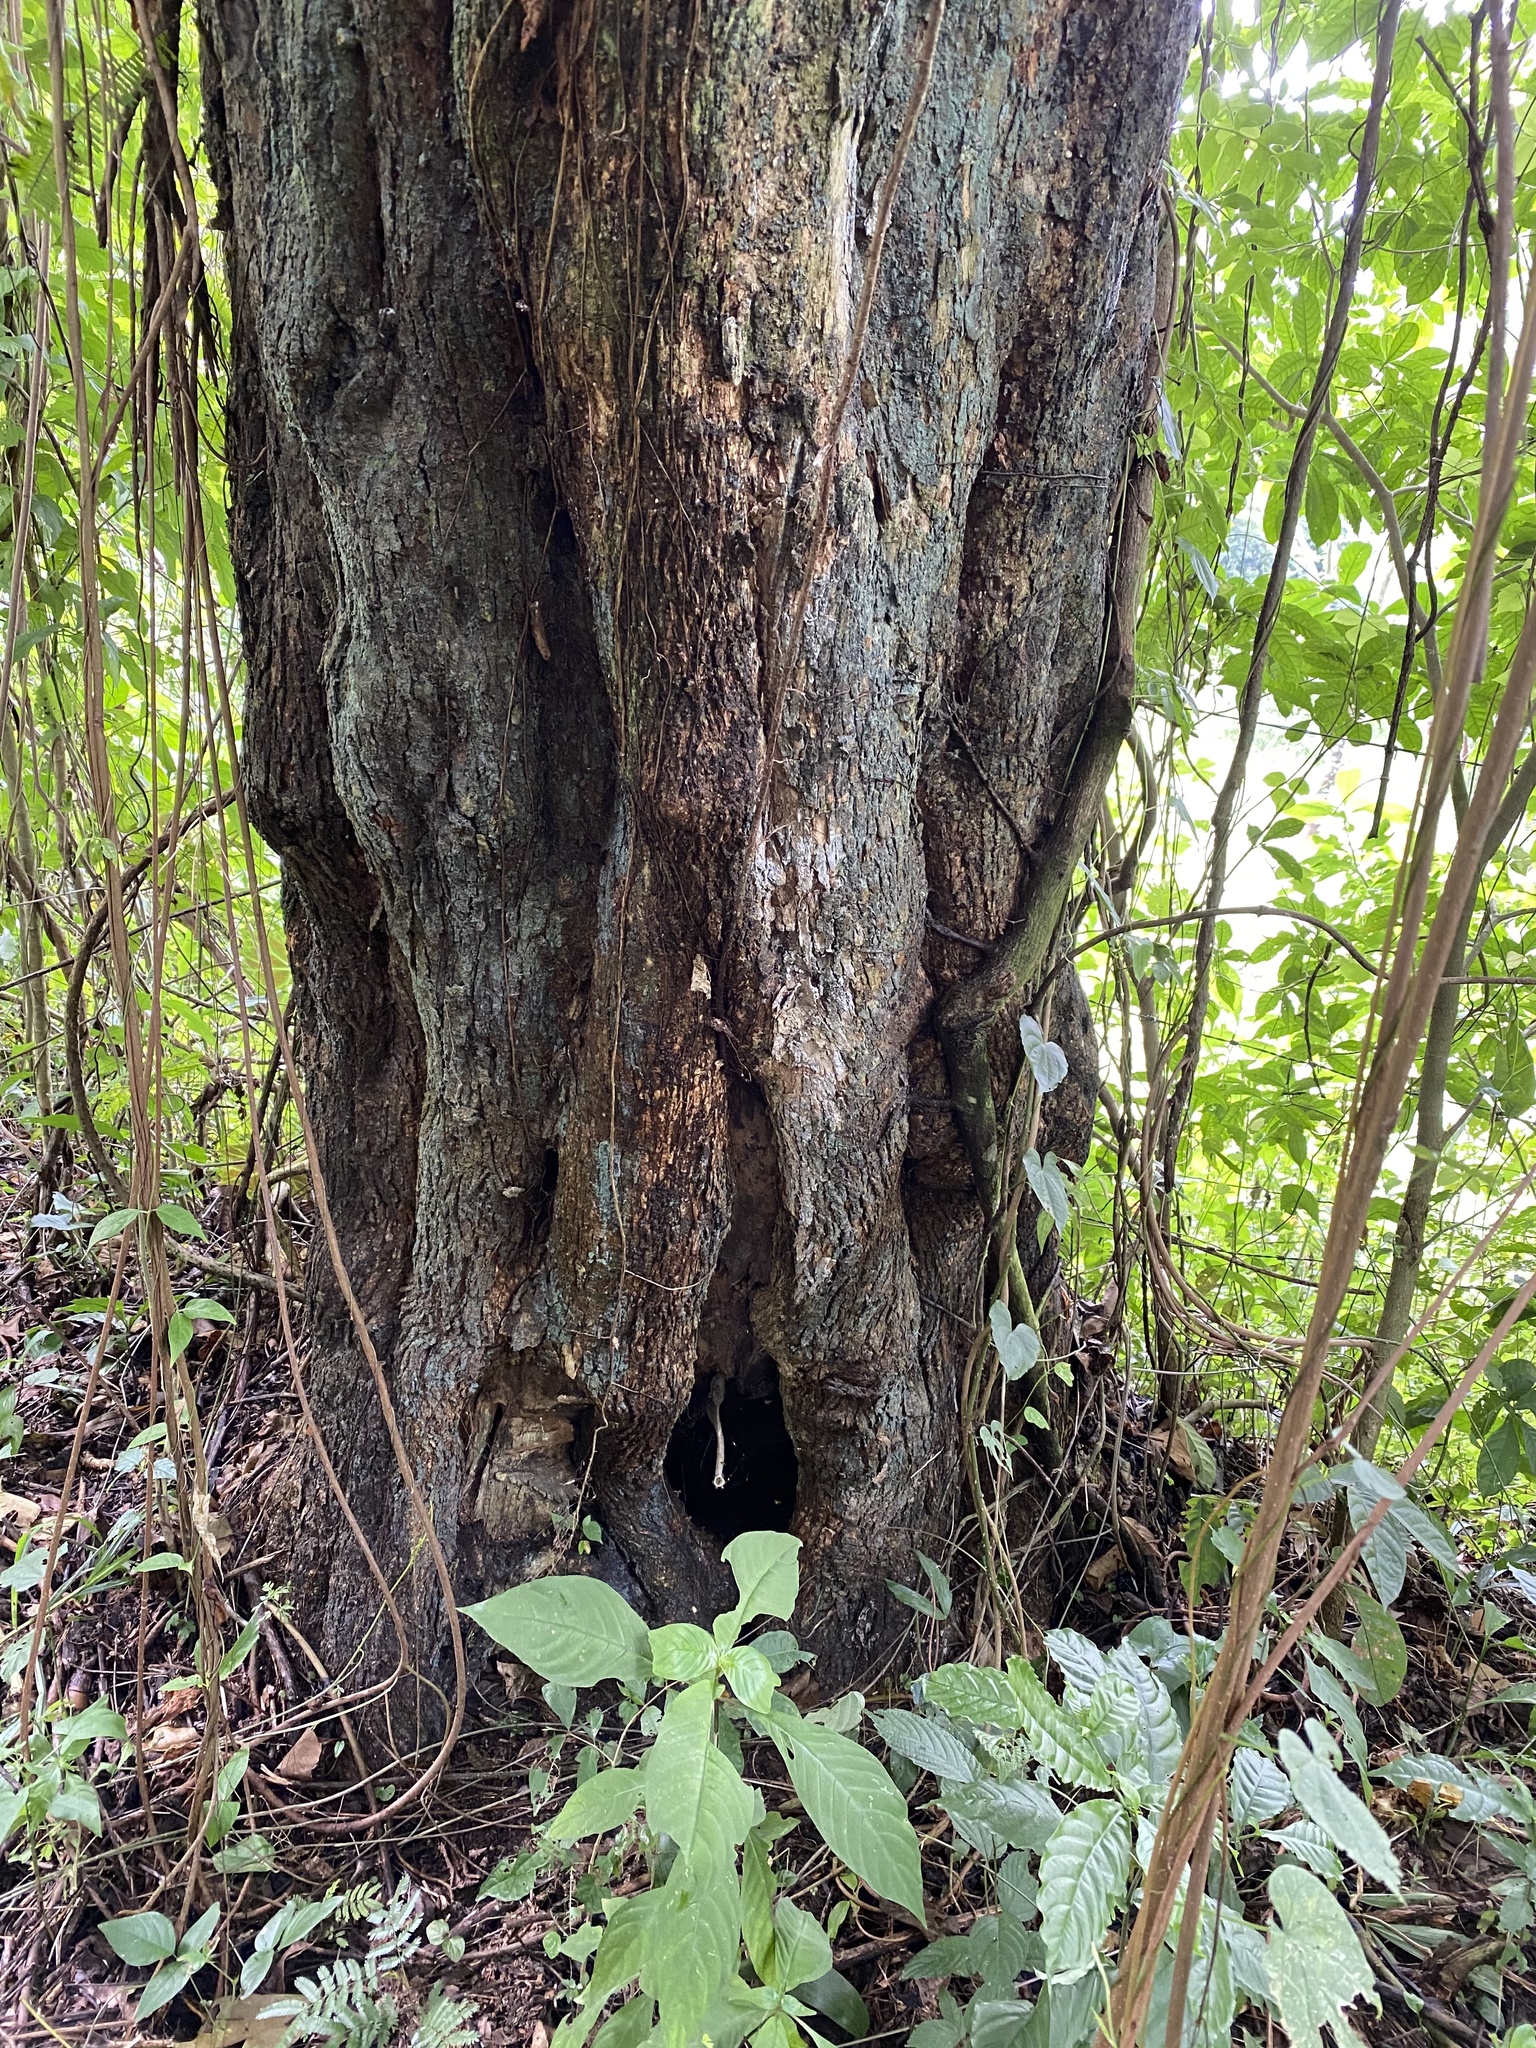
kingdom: Animalia
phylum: Arthropoda
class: Insecta
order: Hymenoptera
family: Apidae
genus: Tetragonisca
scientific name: Tetragonisca angustula
